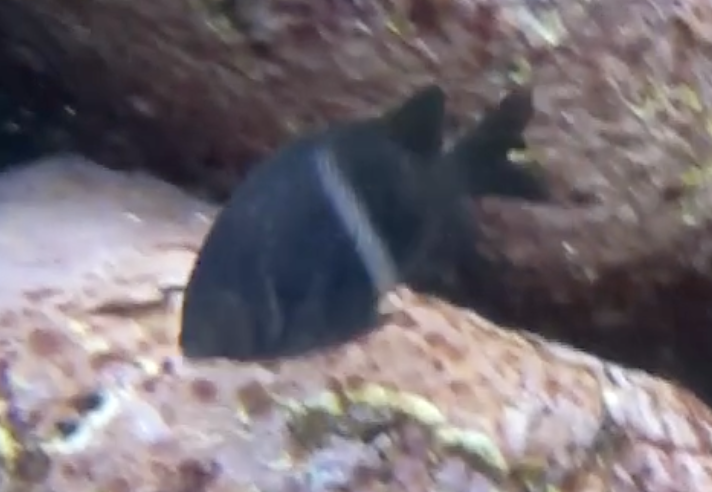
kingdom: Animalia
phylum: Chordata
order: Perciformes
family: Pomacentridae
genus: Parma
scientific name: Parma unifasciata
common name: Girdled parma
